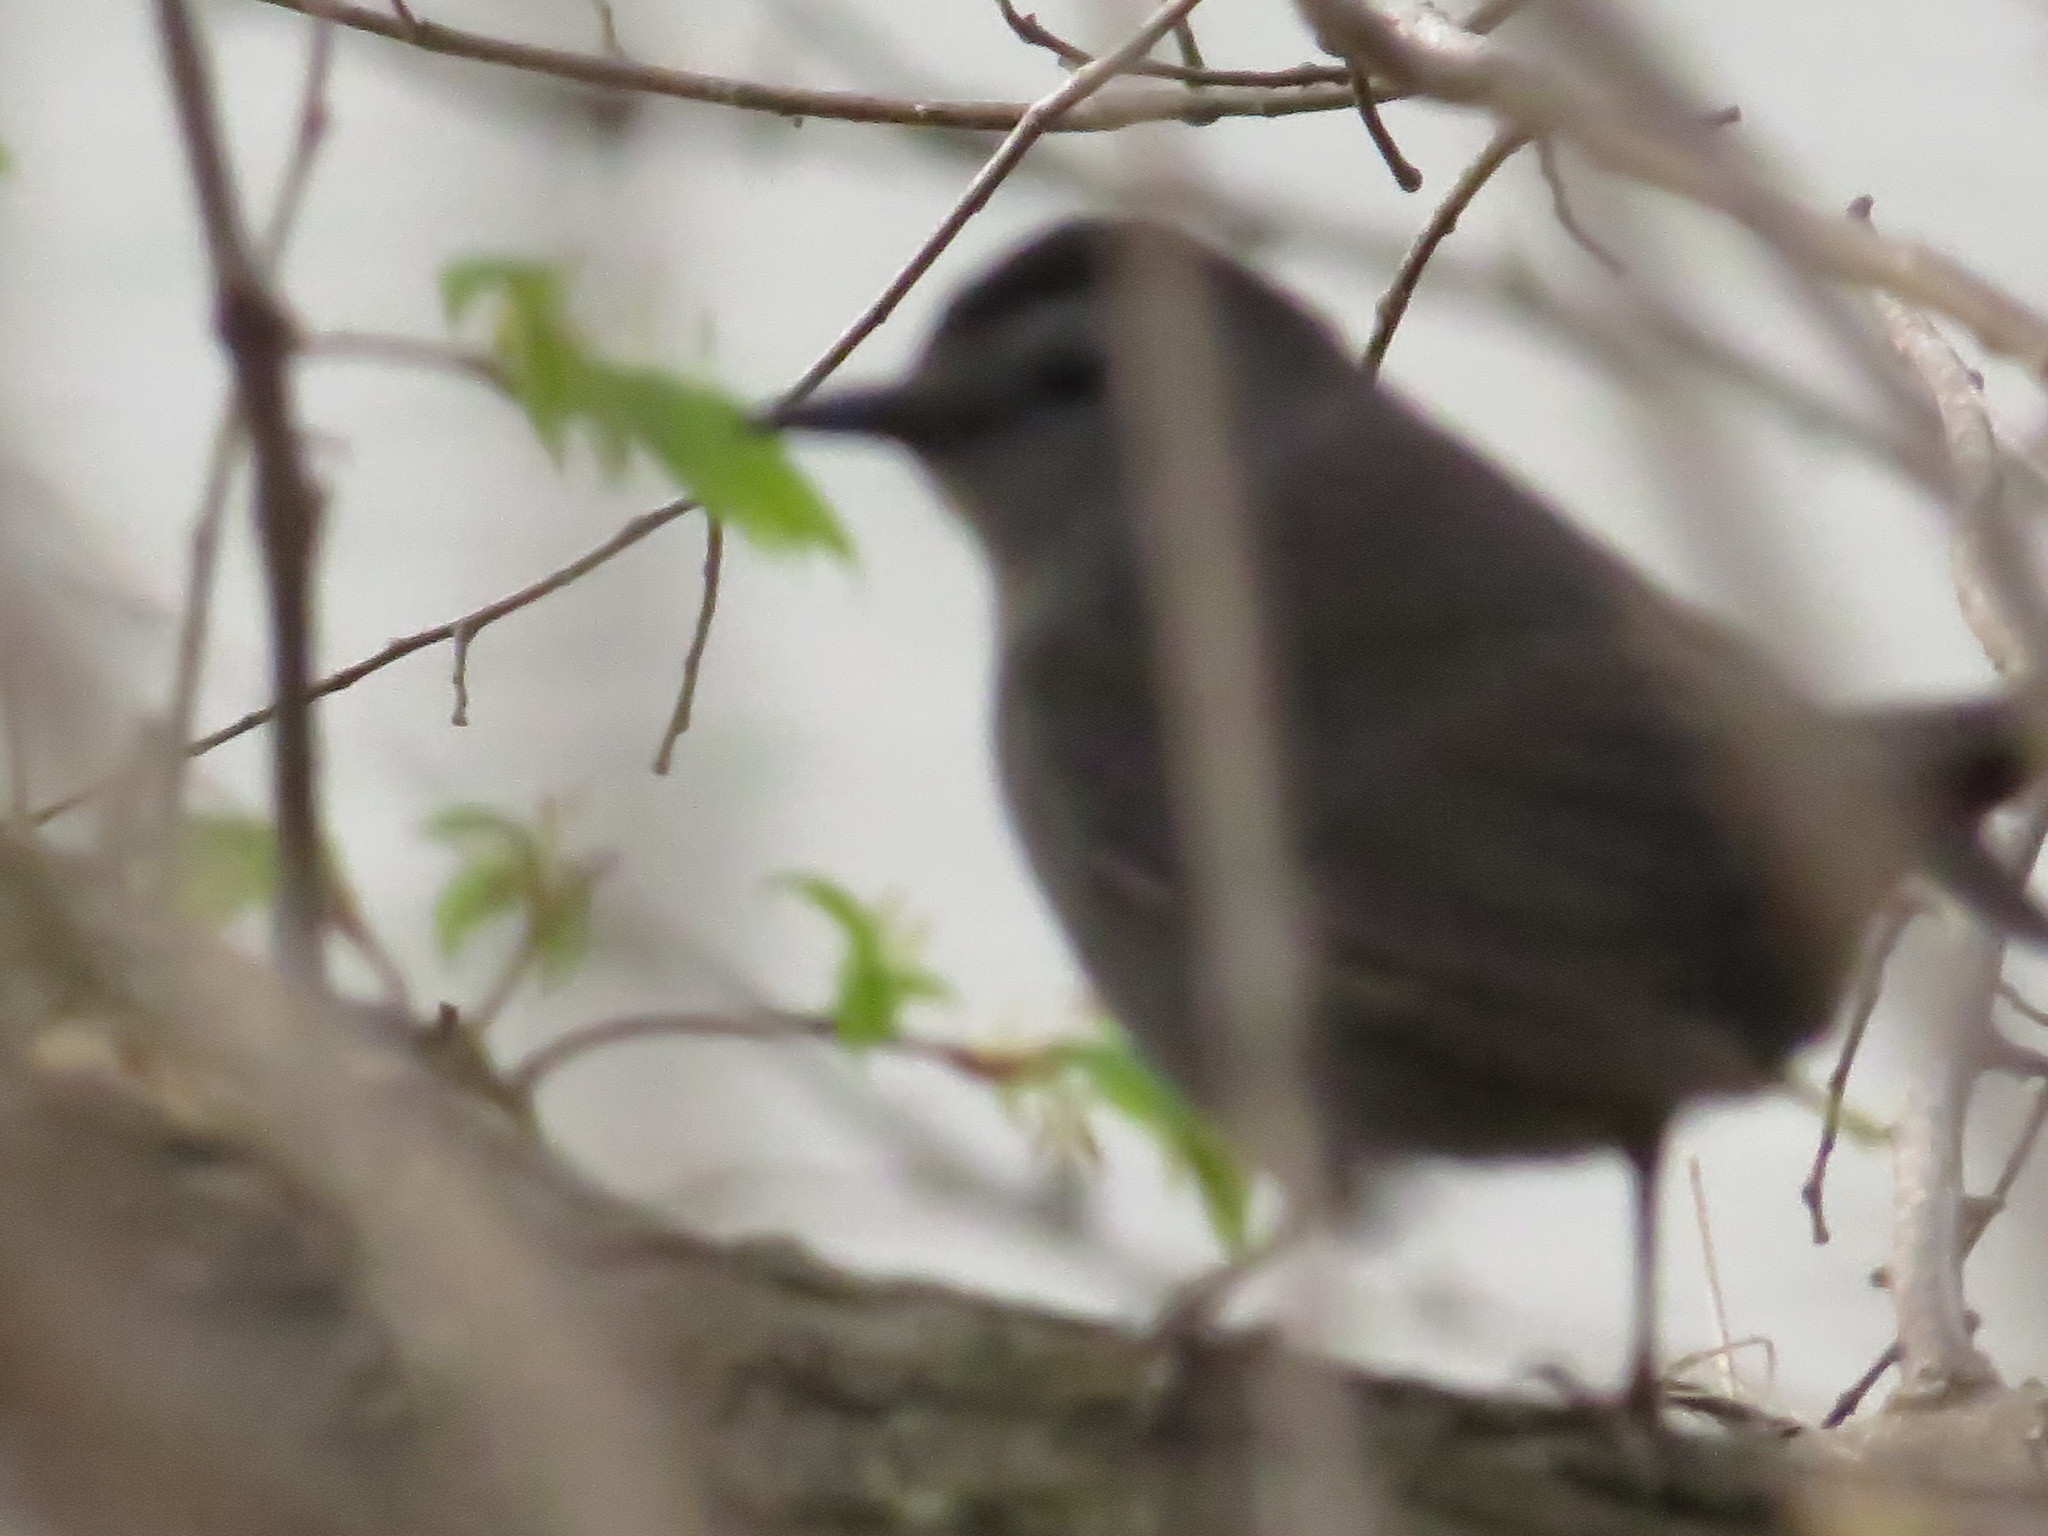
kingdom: Animalia
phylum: Chordata
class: Aves
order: Passeriformes
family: Mimidae
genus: Dumetella
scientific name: Dumetella carolinensis
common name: Gray catbird
